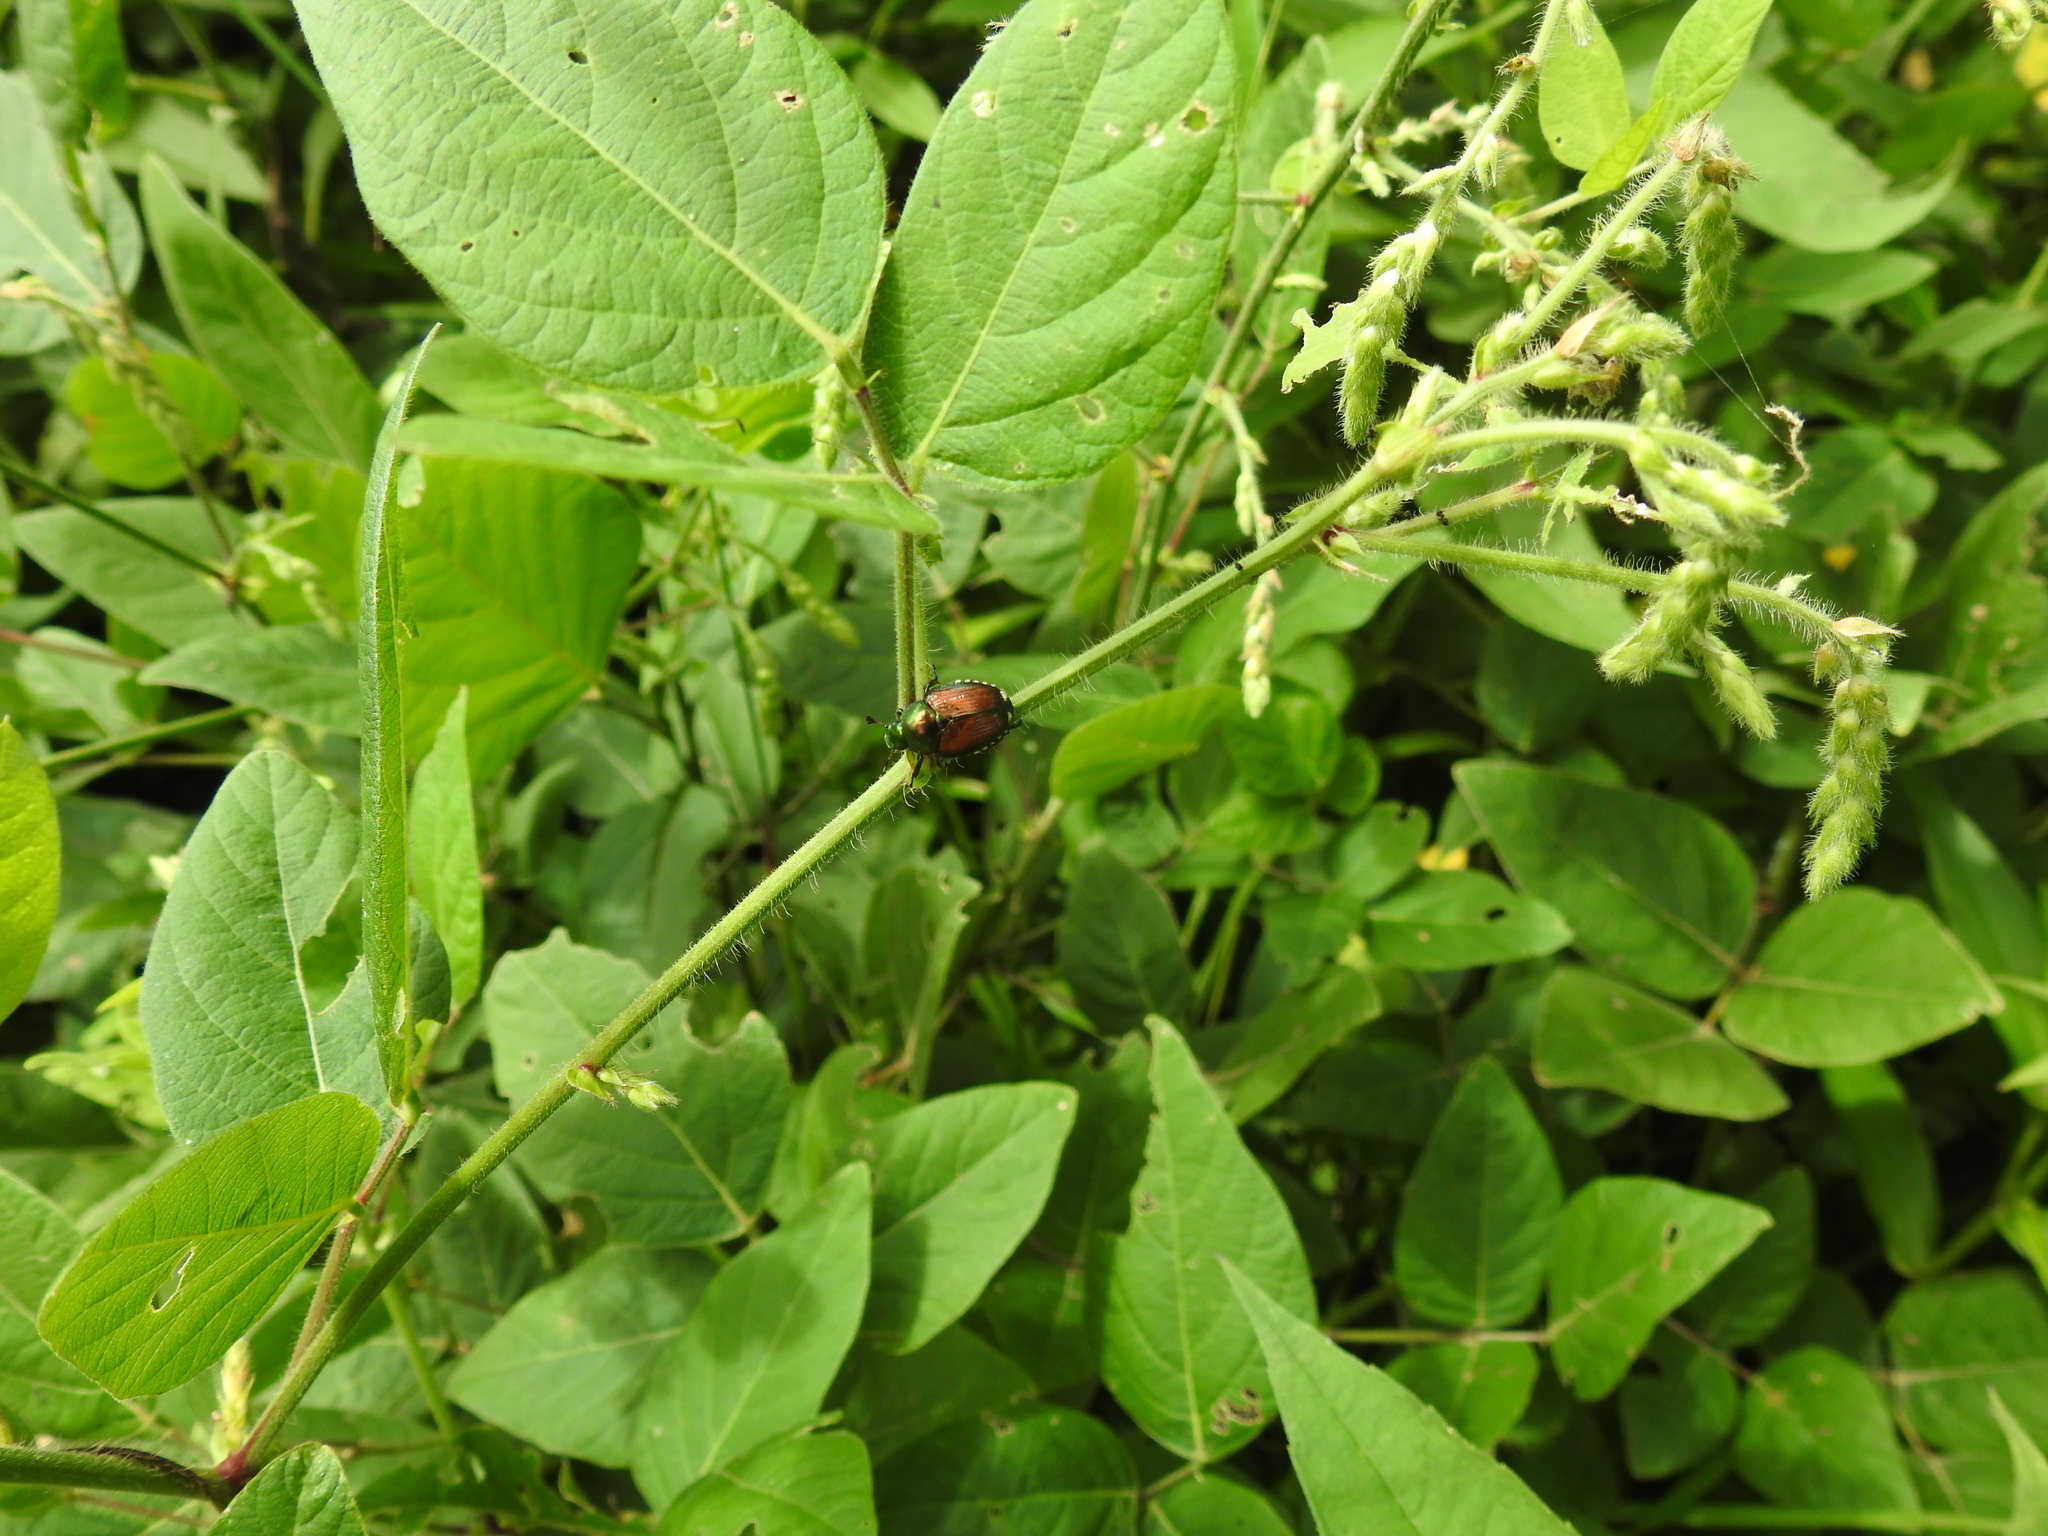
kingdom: Animalia
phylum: Arthropoda
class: Insecta
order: Coleoptera
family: Scarabaeidae
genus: Popillia
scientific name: Popillia japonica
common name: Japanese beetle
